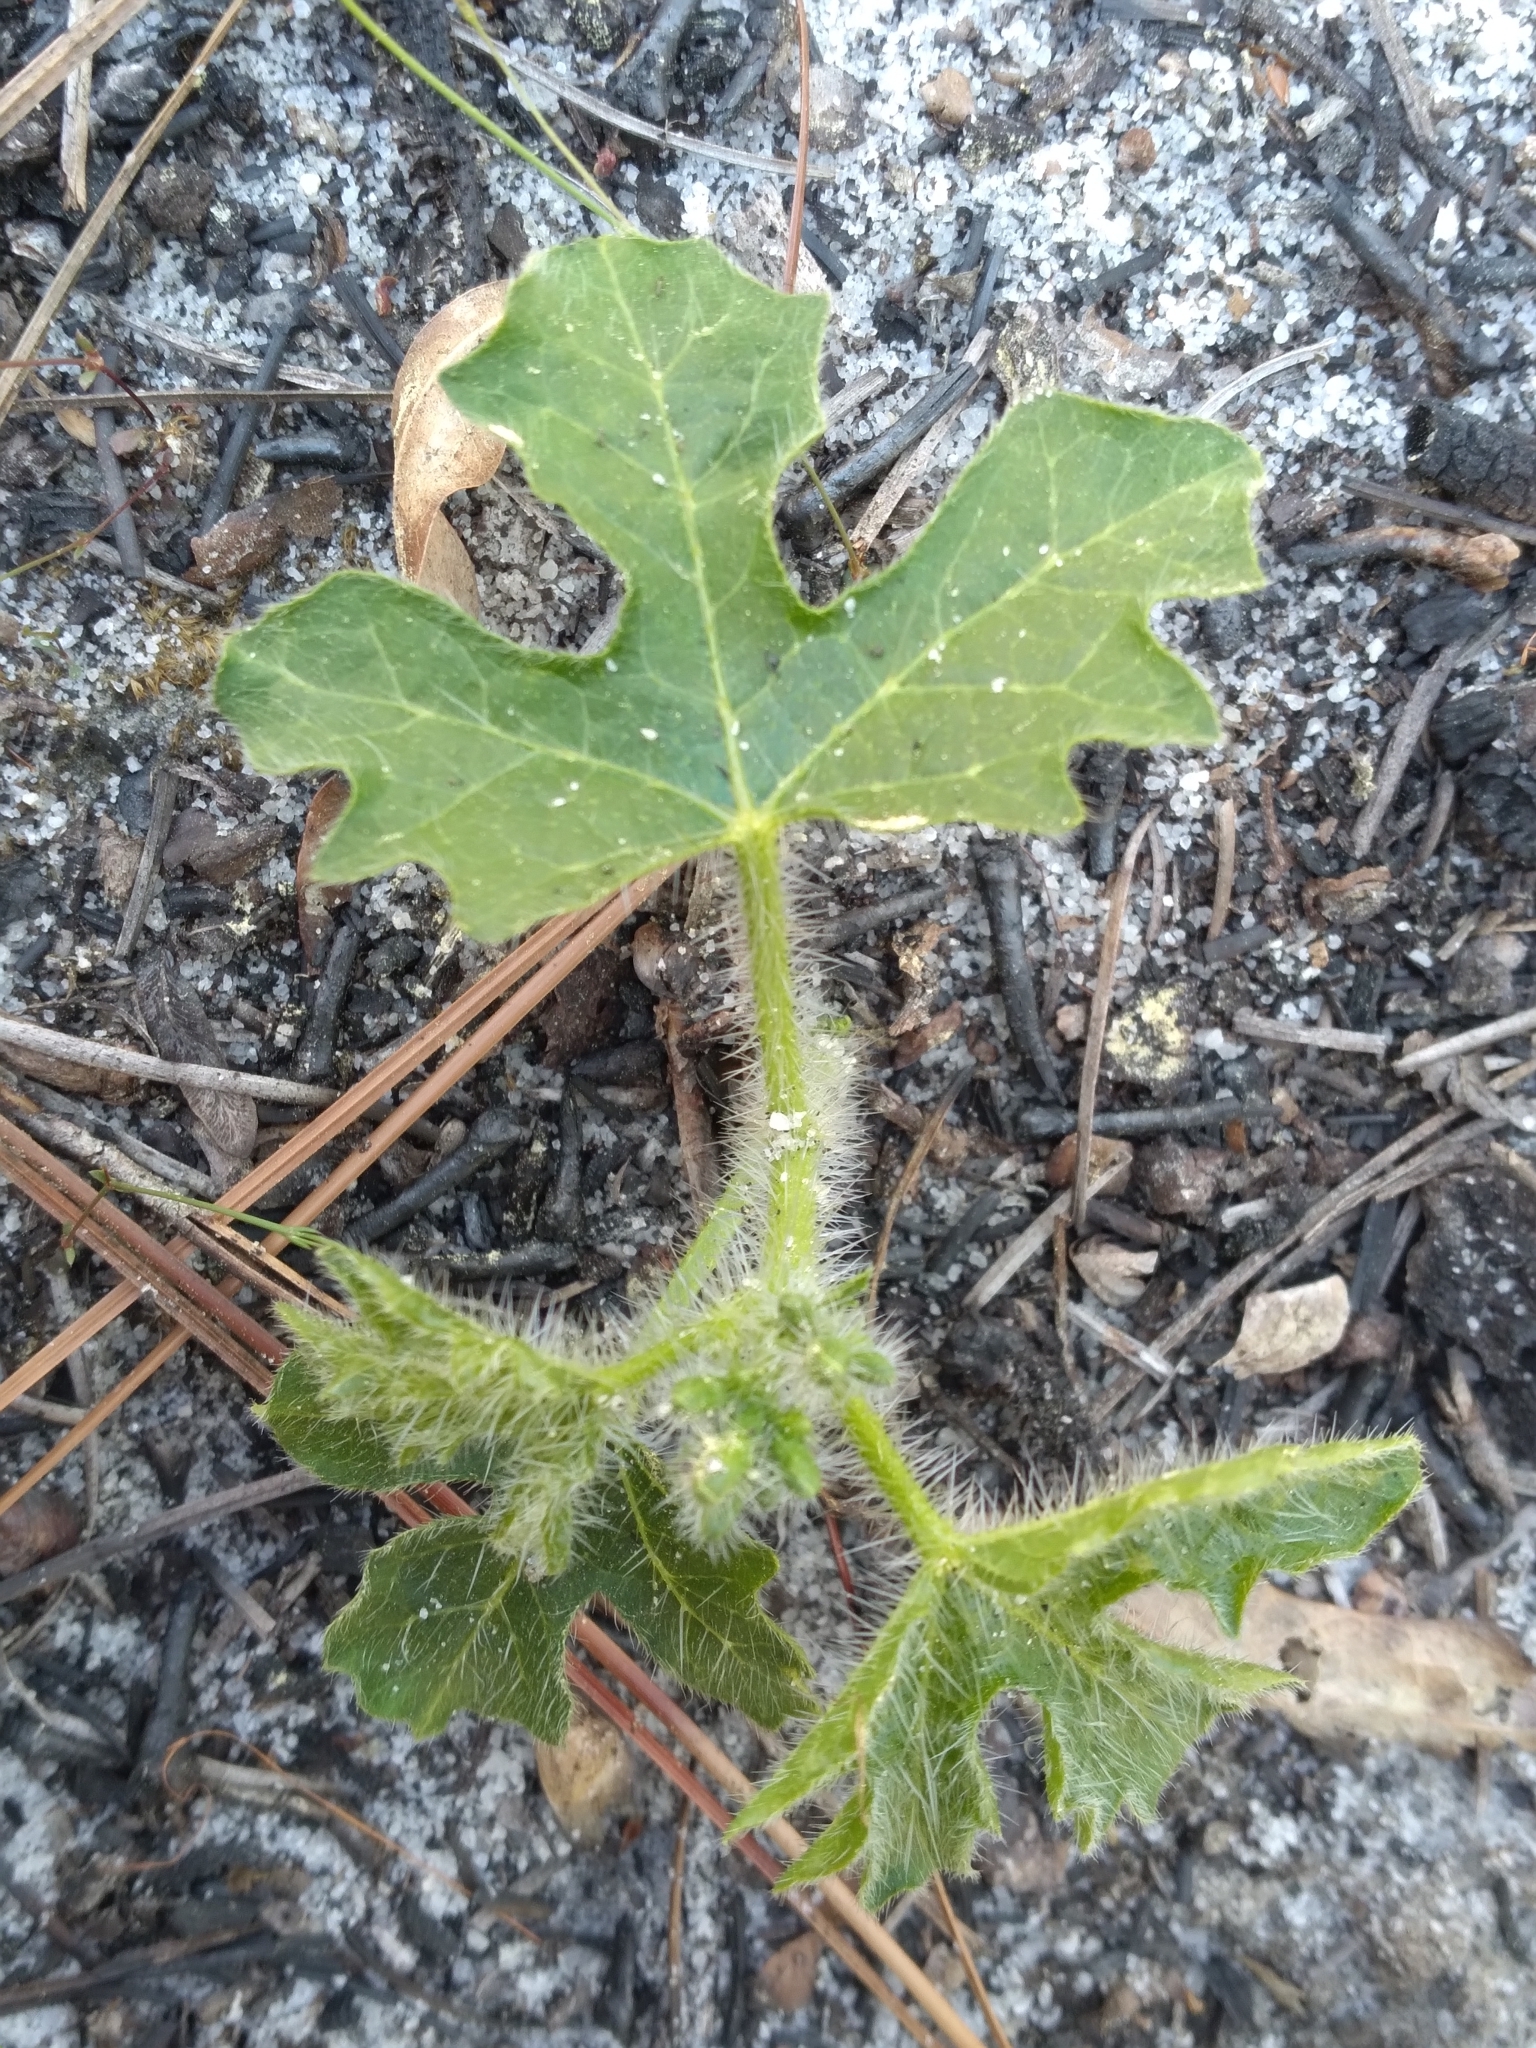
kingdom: Plantae
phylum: Tracheophyta
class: Magnoliopsida
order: Malpighiales
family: Euphorbiaceae
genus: Cnidoscolus
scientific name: Cnidoscolus stimulosus
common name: Bull-nettle
